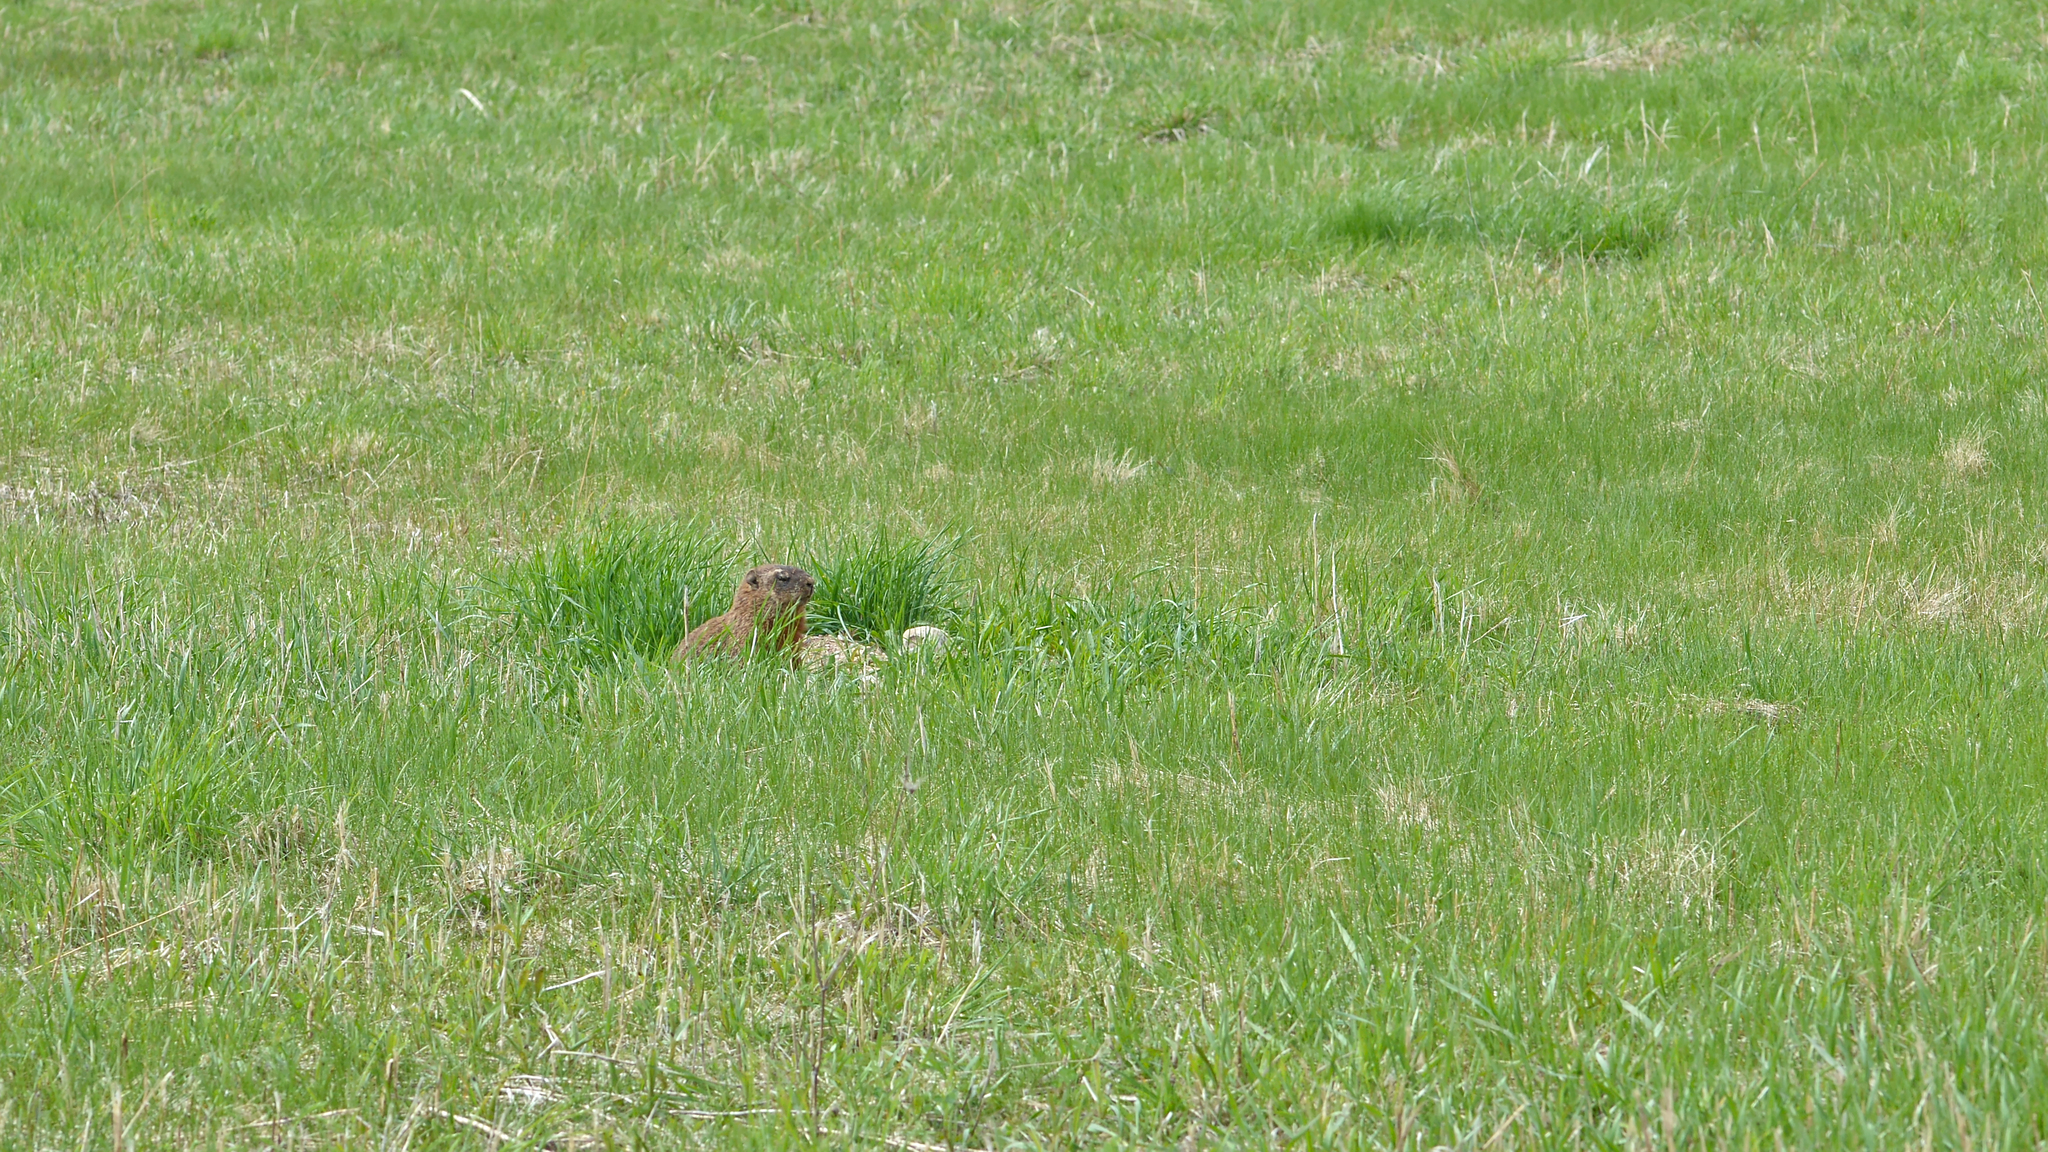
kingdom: Animalia
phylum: Chordata
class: Mammalia
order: Rodentia
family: Sciuridae
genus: Marmota
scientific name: Marmota monax
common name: Groundhog
